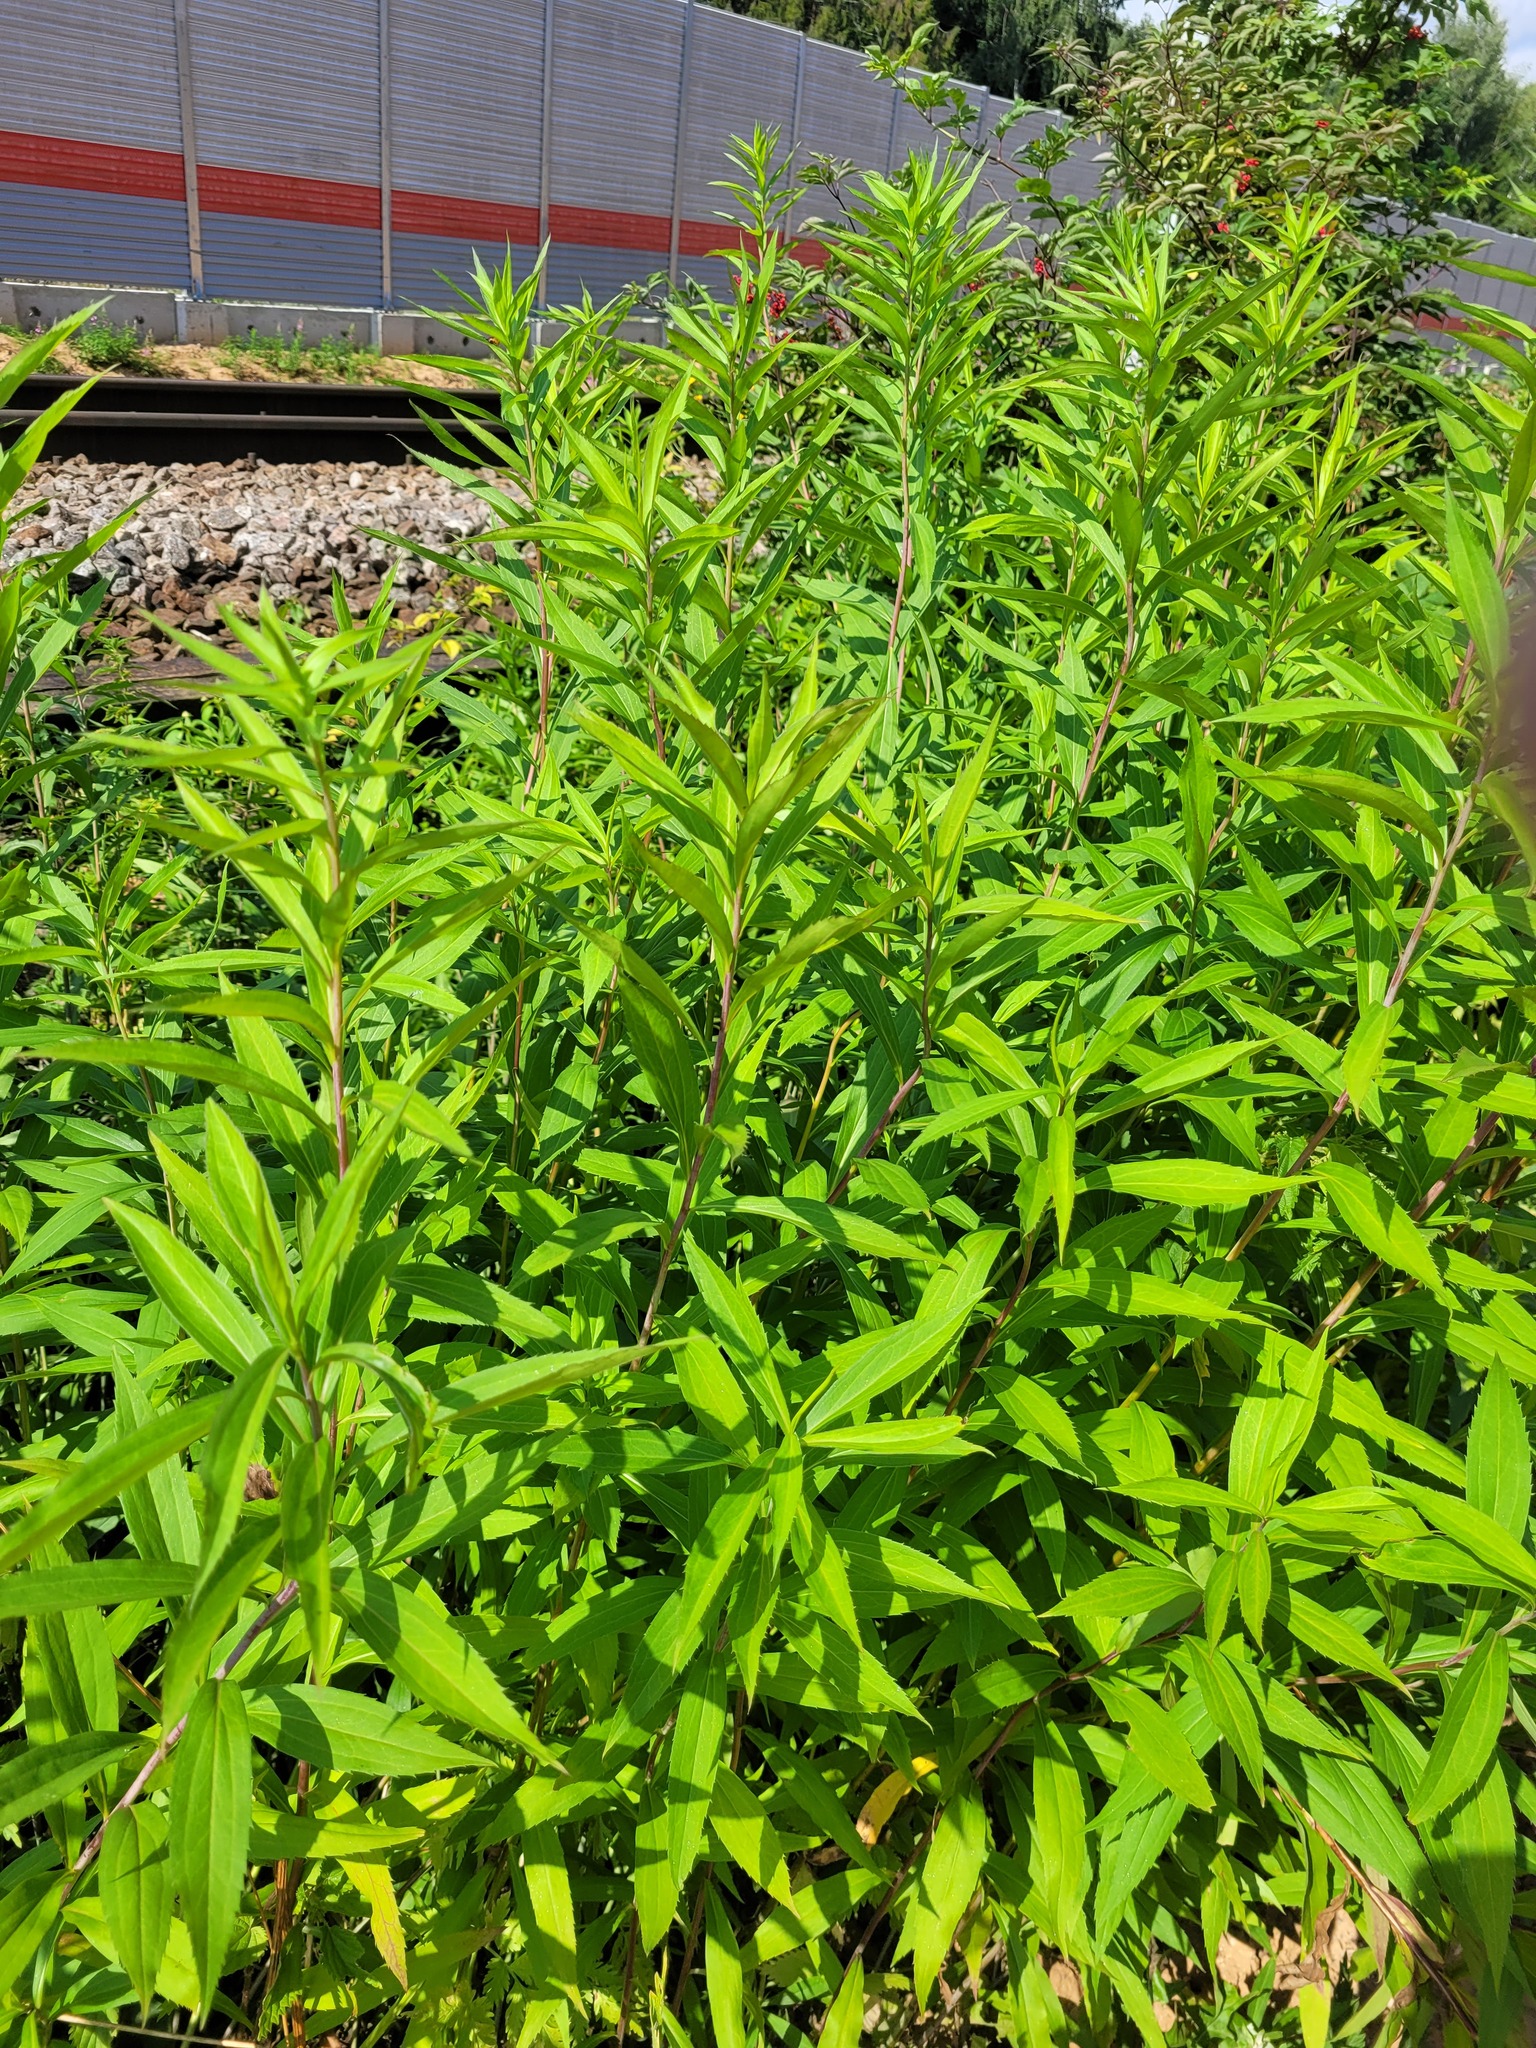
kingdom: Plantae
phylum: Tracheophyta
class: Magnoliopsida
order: Asterales
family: Asteraceae
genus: Solidago
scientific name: Solidago gigantea
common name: Giant goldenrod
